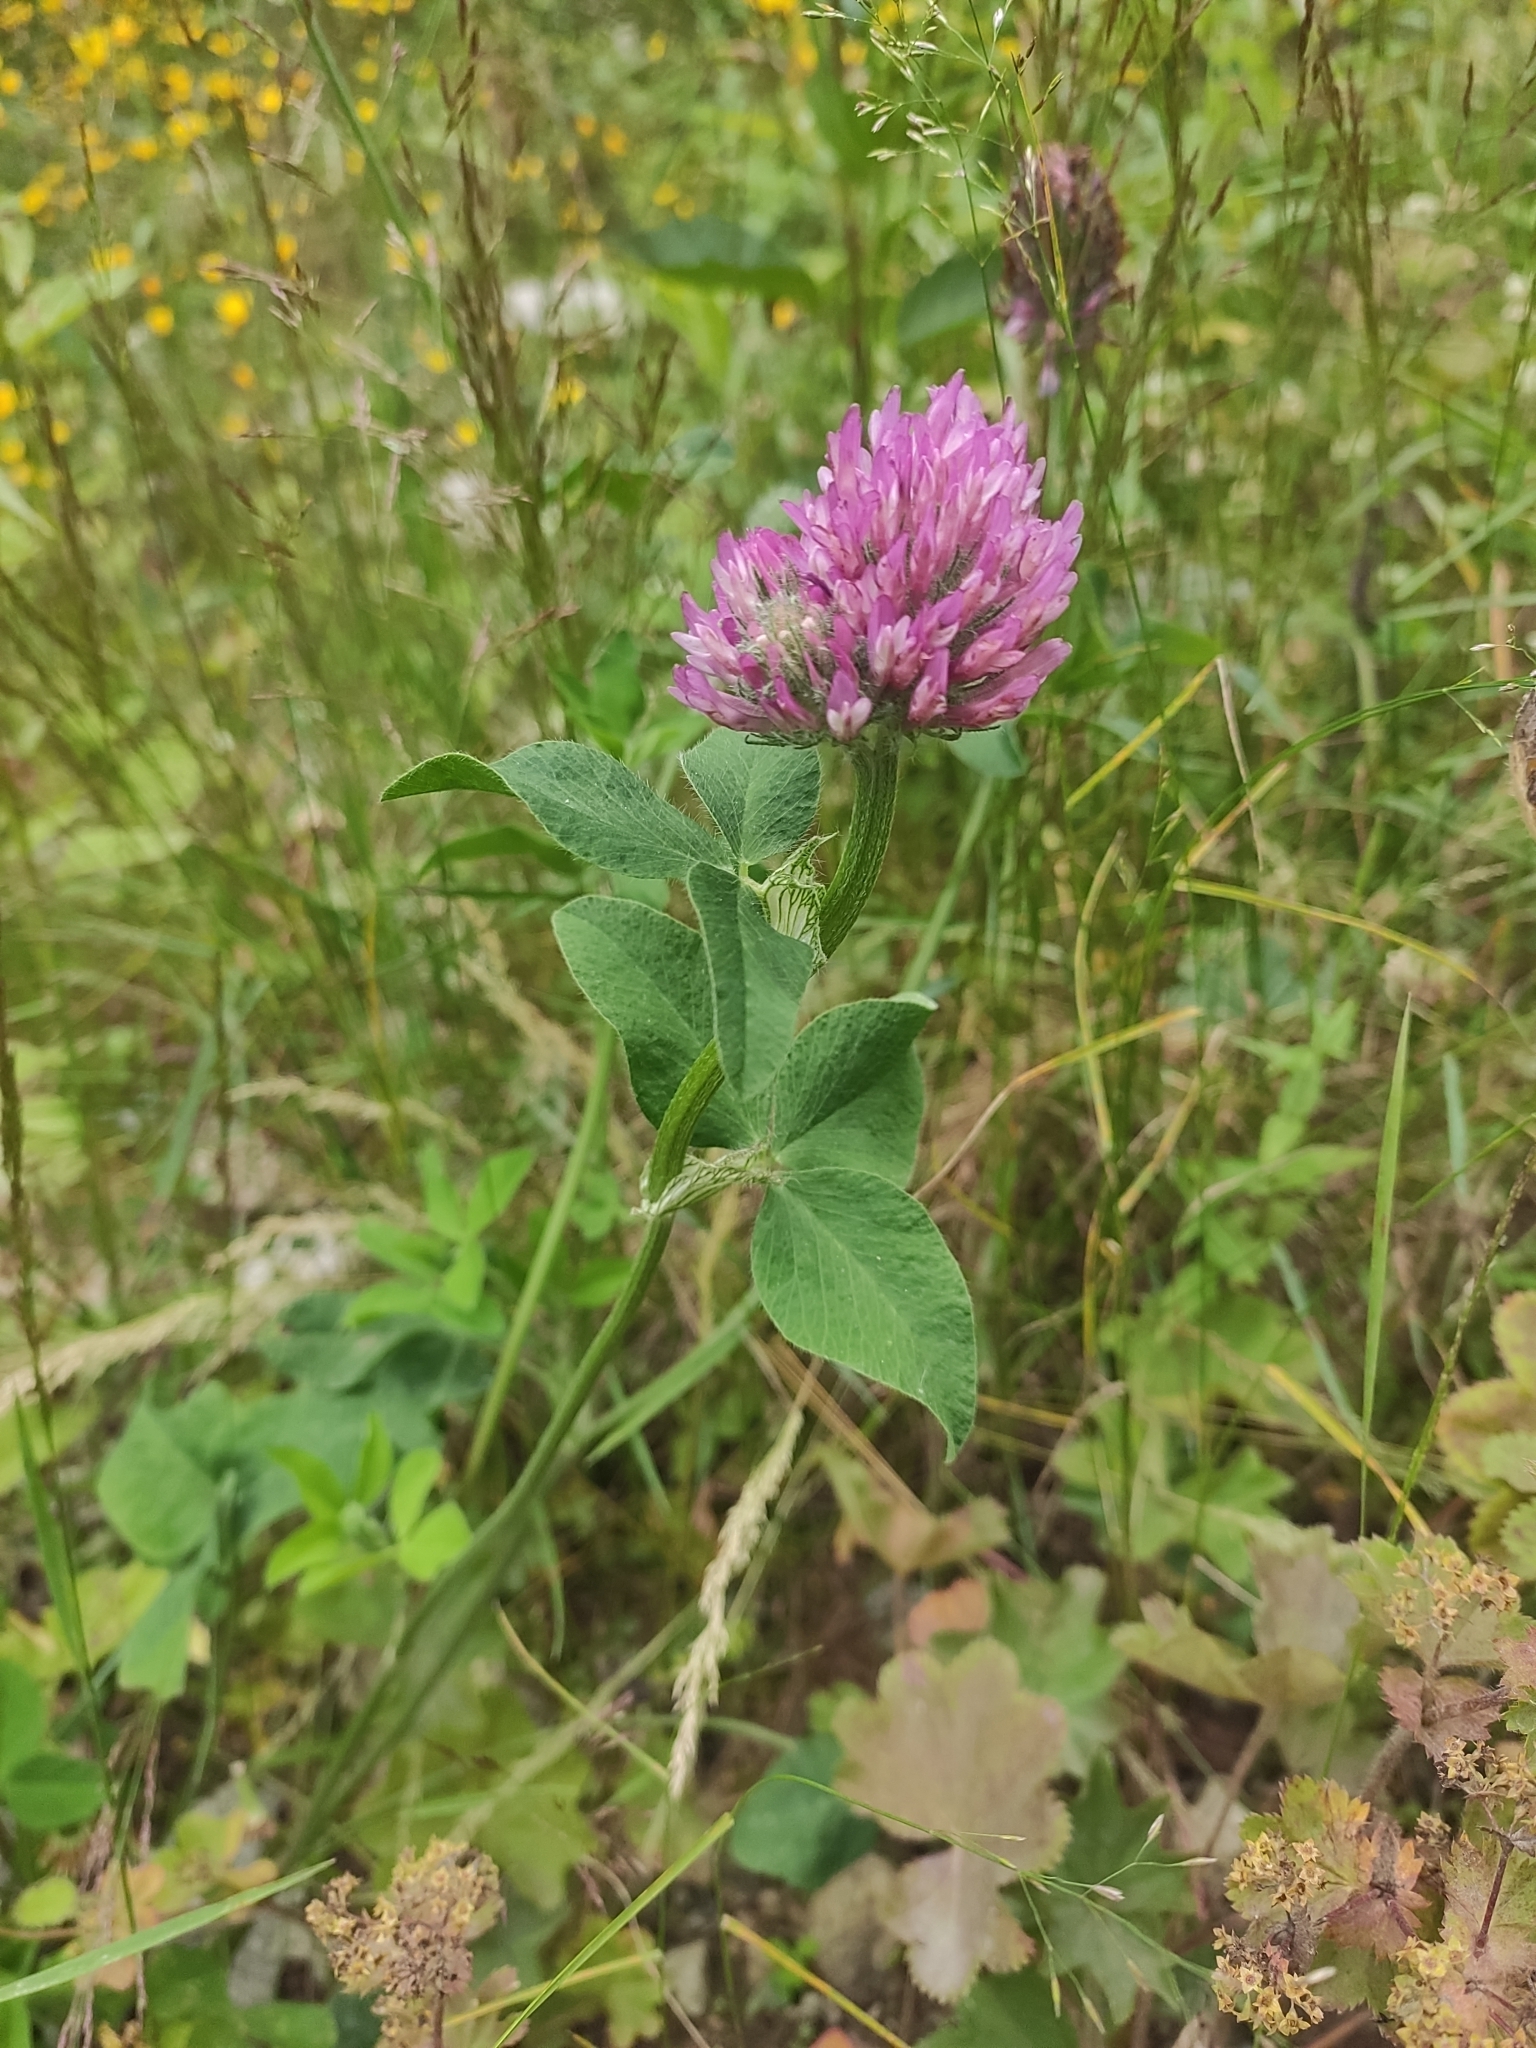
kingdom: Plantae
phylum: Tracheophyta
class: Magnoliopsida
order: Fabales
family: Fabaceae
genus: Trifolium
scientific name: Trifolium pratense
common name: Red clover
